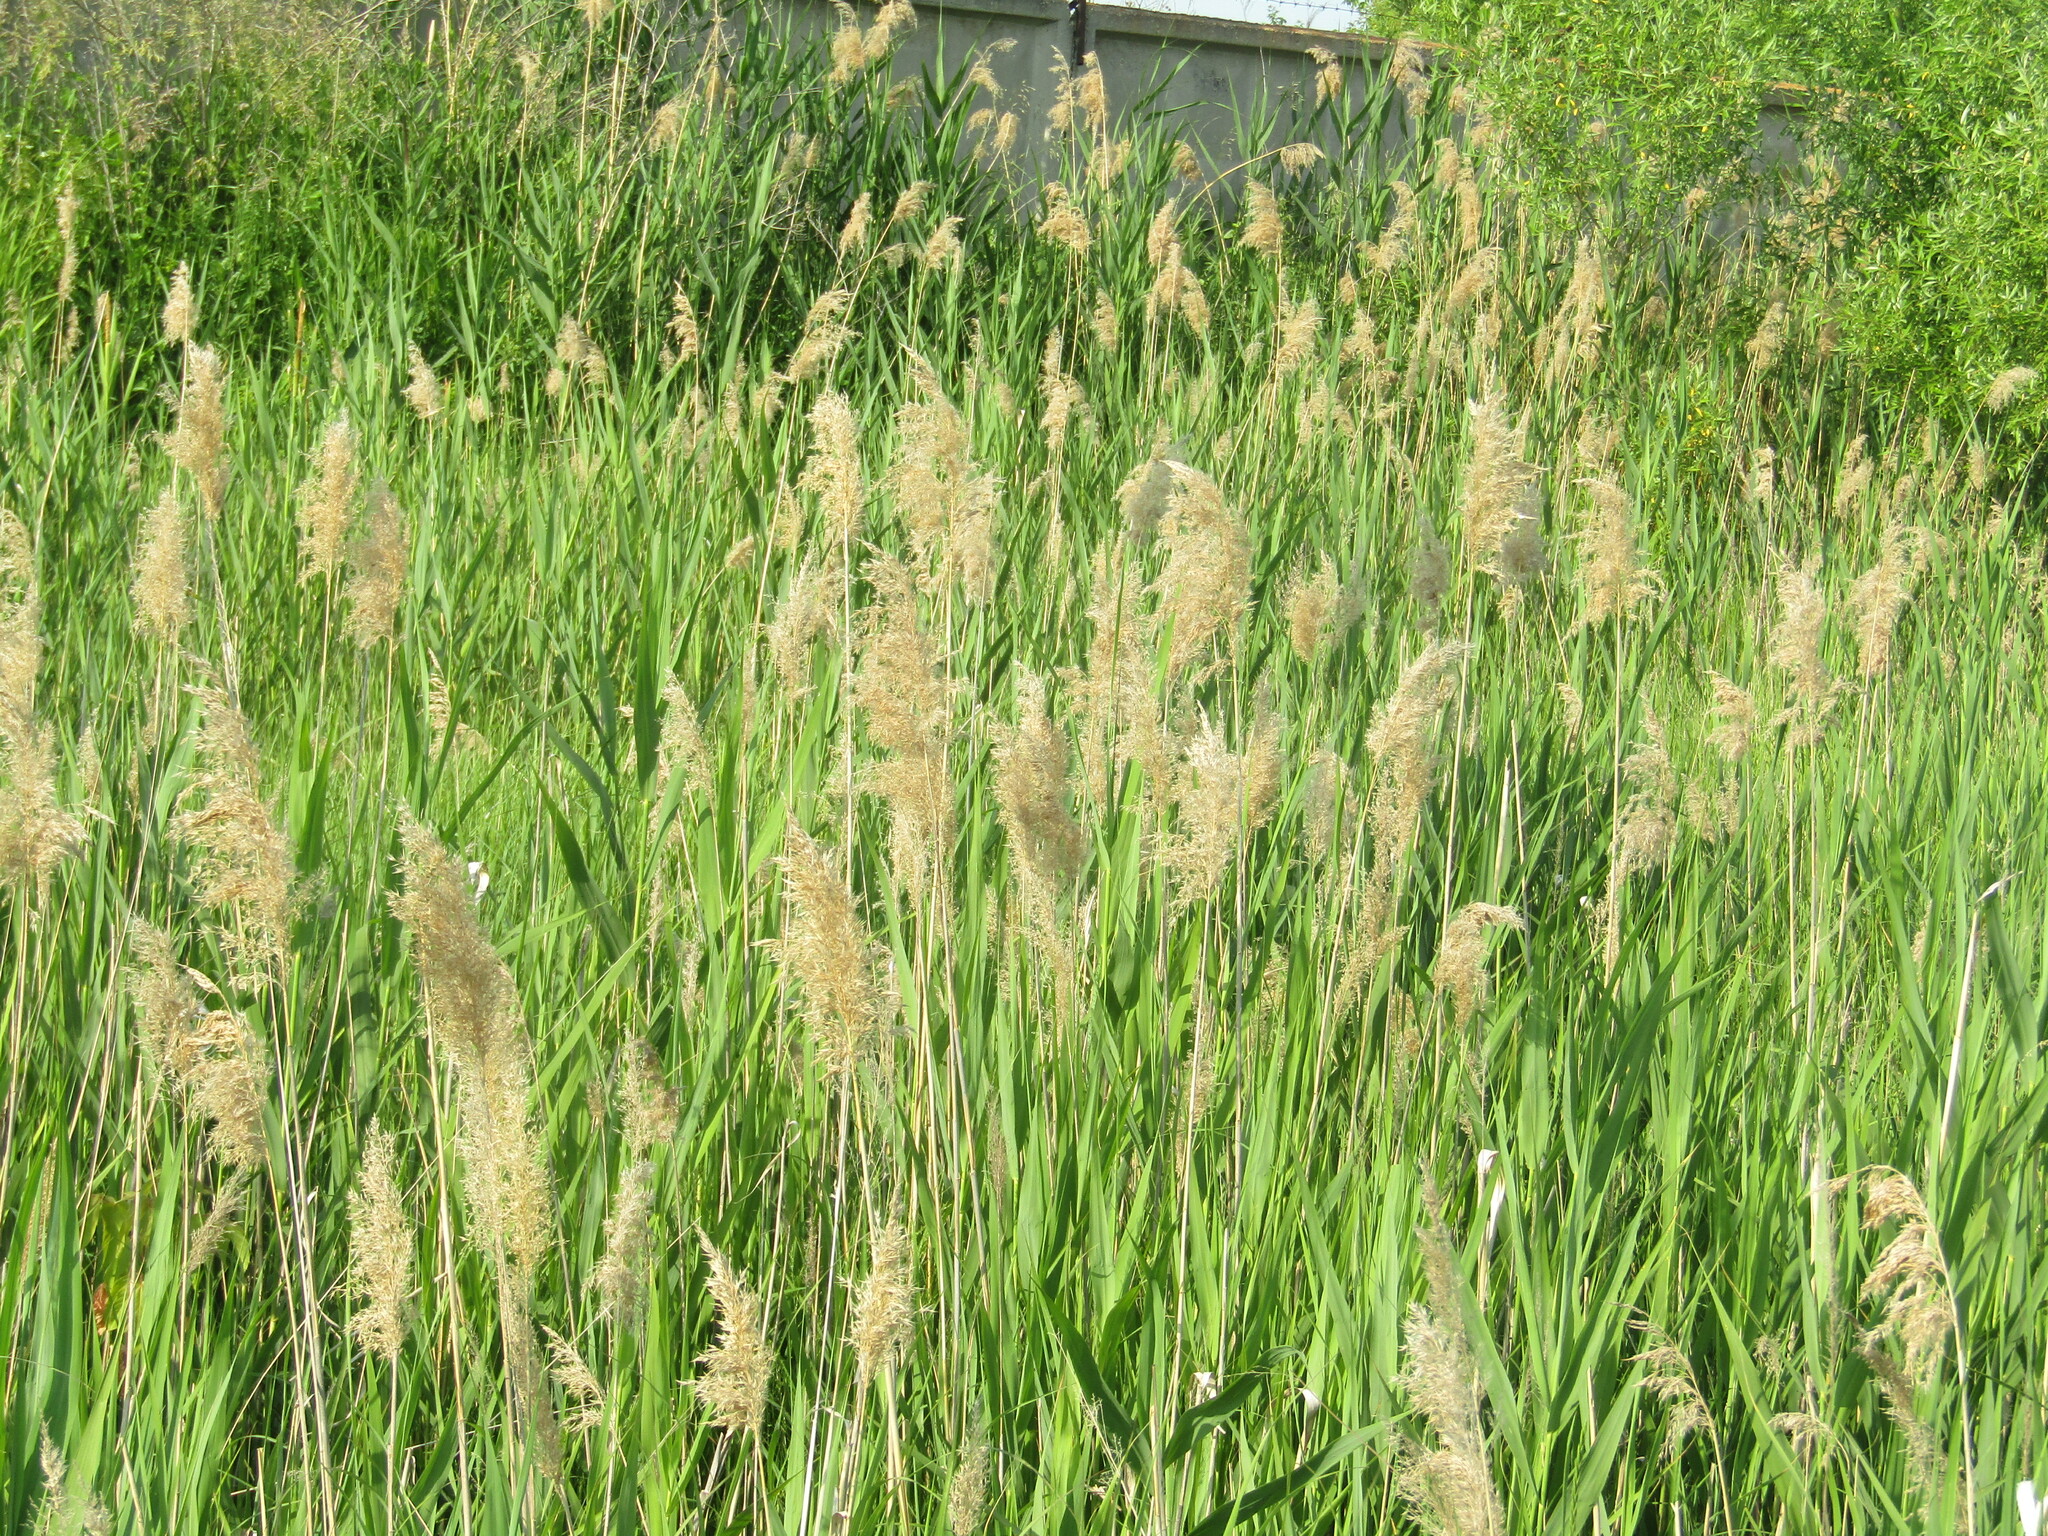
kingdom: Plantae
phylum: Tracheophyta
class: Liliopsida
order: Poales
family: Poaceae
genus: Phragmites
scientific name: Phragmites australis
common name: Common reed
